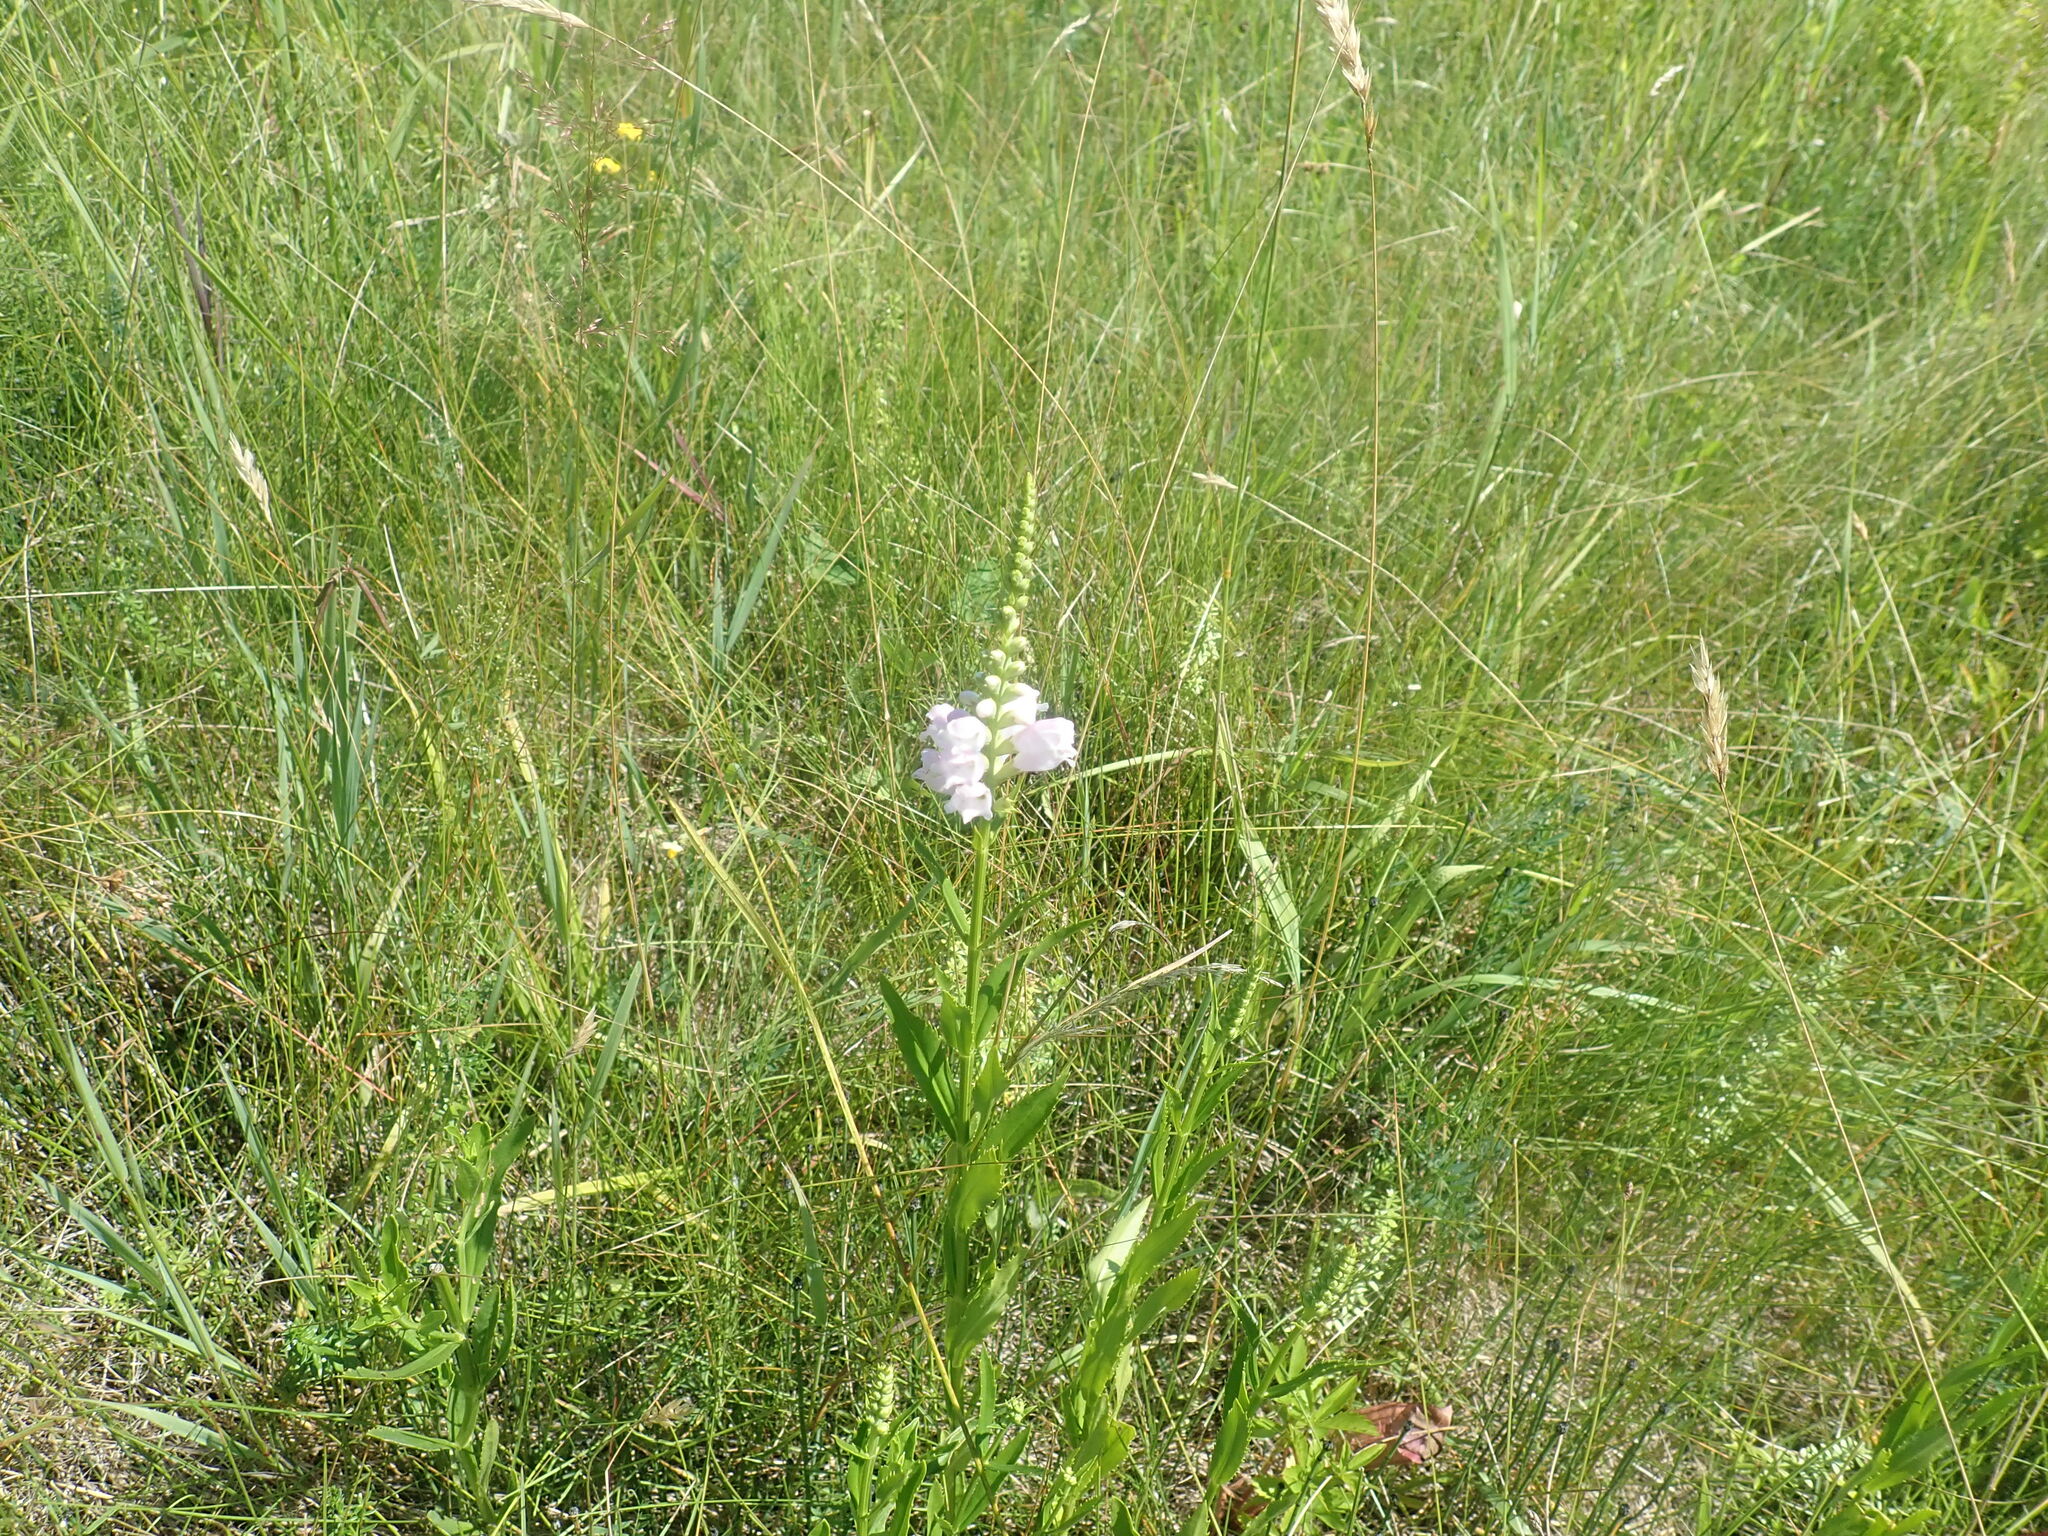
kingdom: Plantae
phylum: Tracheophyta
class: Magnoliopsida
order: Lamiales
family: Lamiaceae
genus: Physostegia
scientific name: Physostegia virginiana
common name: Obedient-plant
